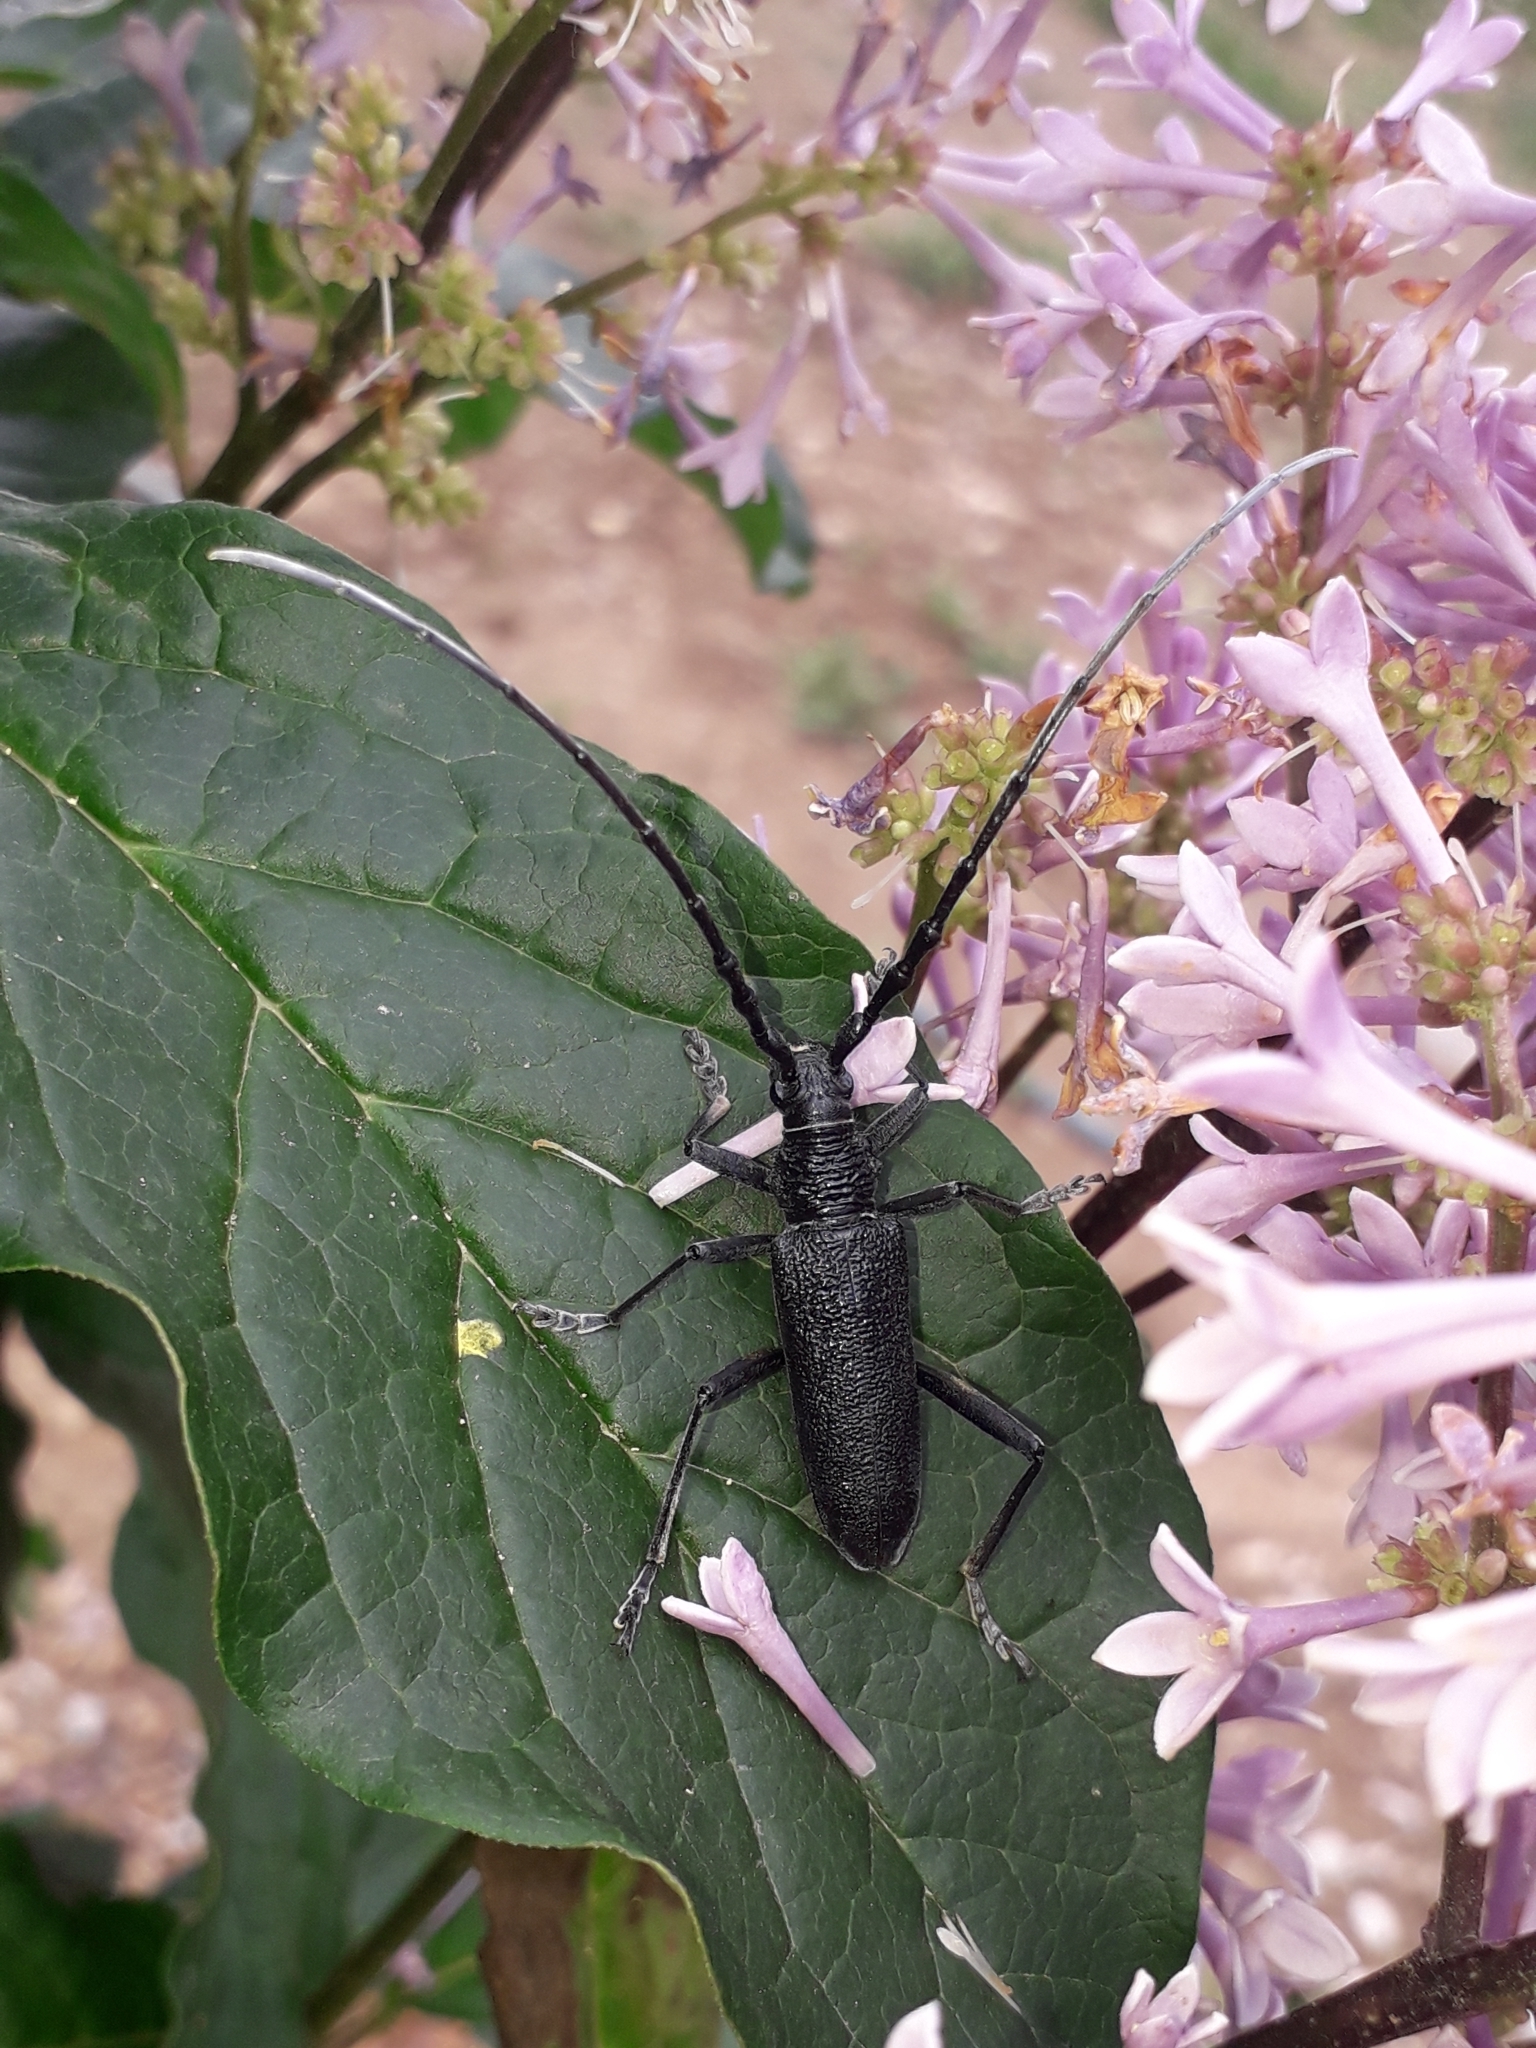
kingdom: Animalia
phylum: Arthropoda
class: Insecta
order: Coleoptera
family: Cerambycidae
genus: Cerambyx
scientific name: Cerambyx scopolii
